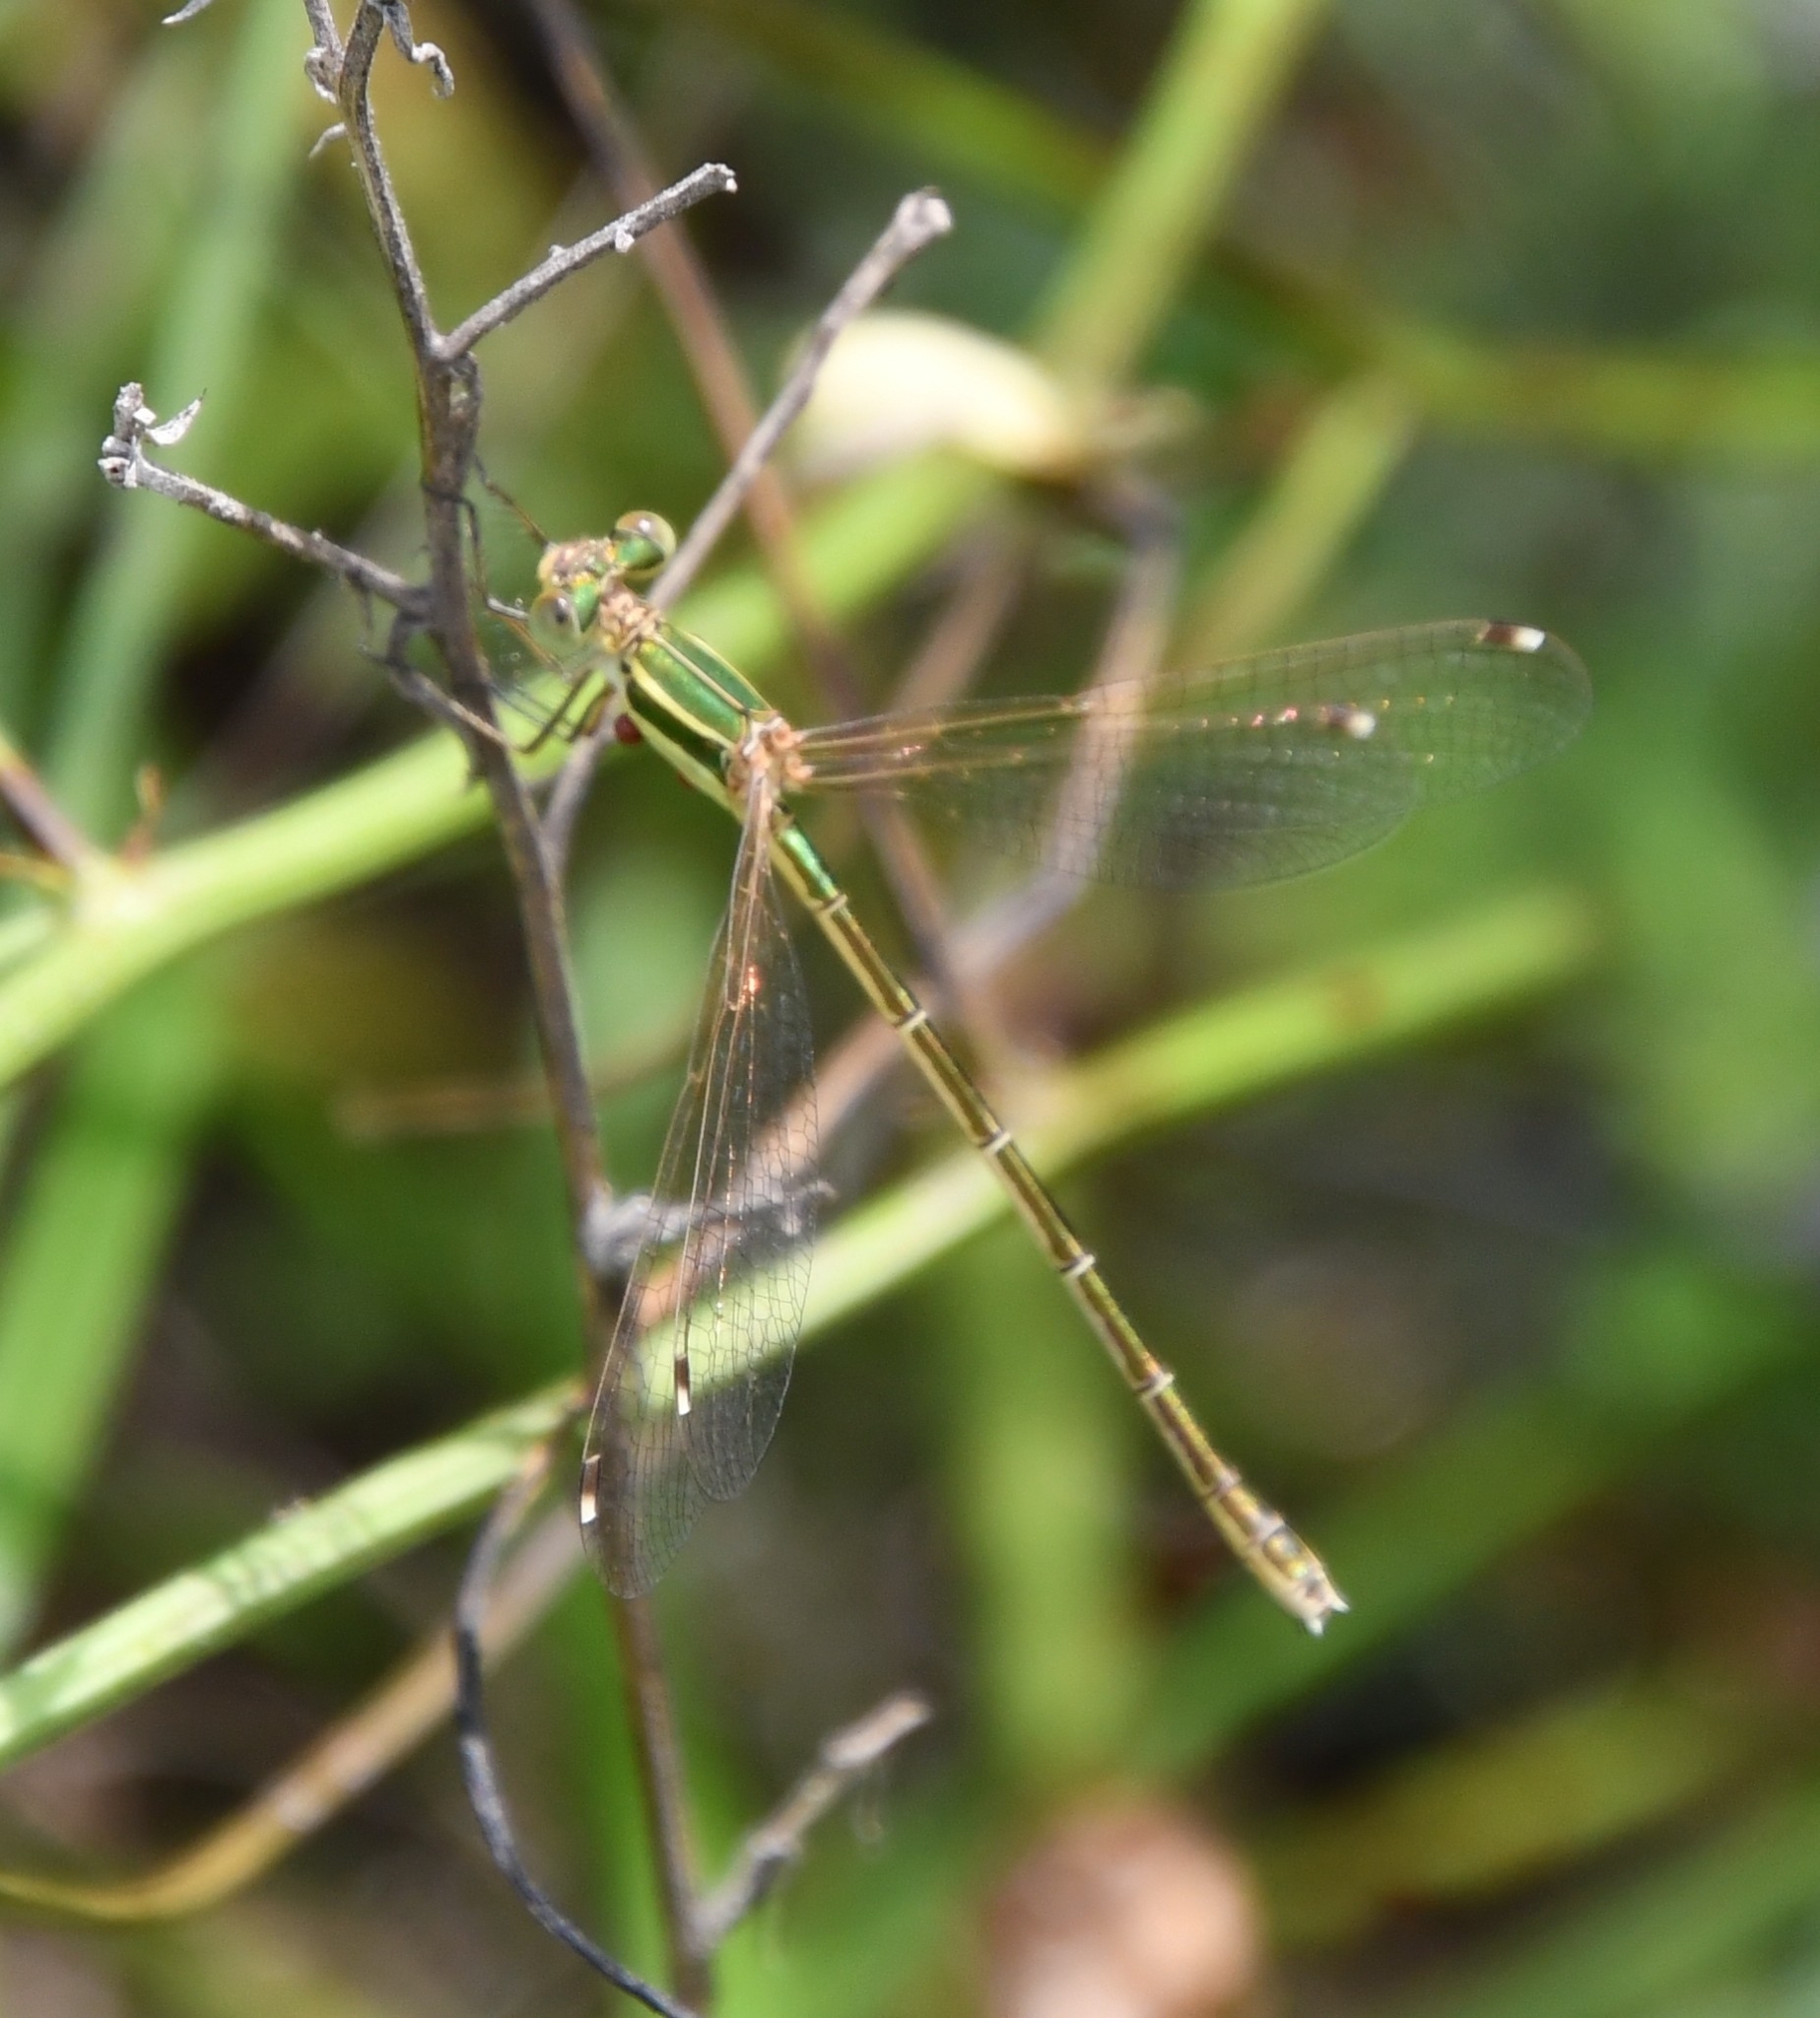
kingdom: Animalia
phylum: Arthropoda
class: Insecta
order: Odonata
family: Lestidae
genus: Lestes
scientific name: Lestes barbarus
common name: Migrant spreadwing
